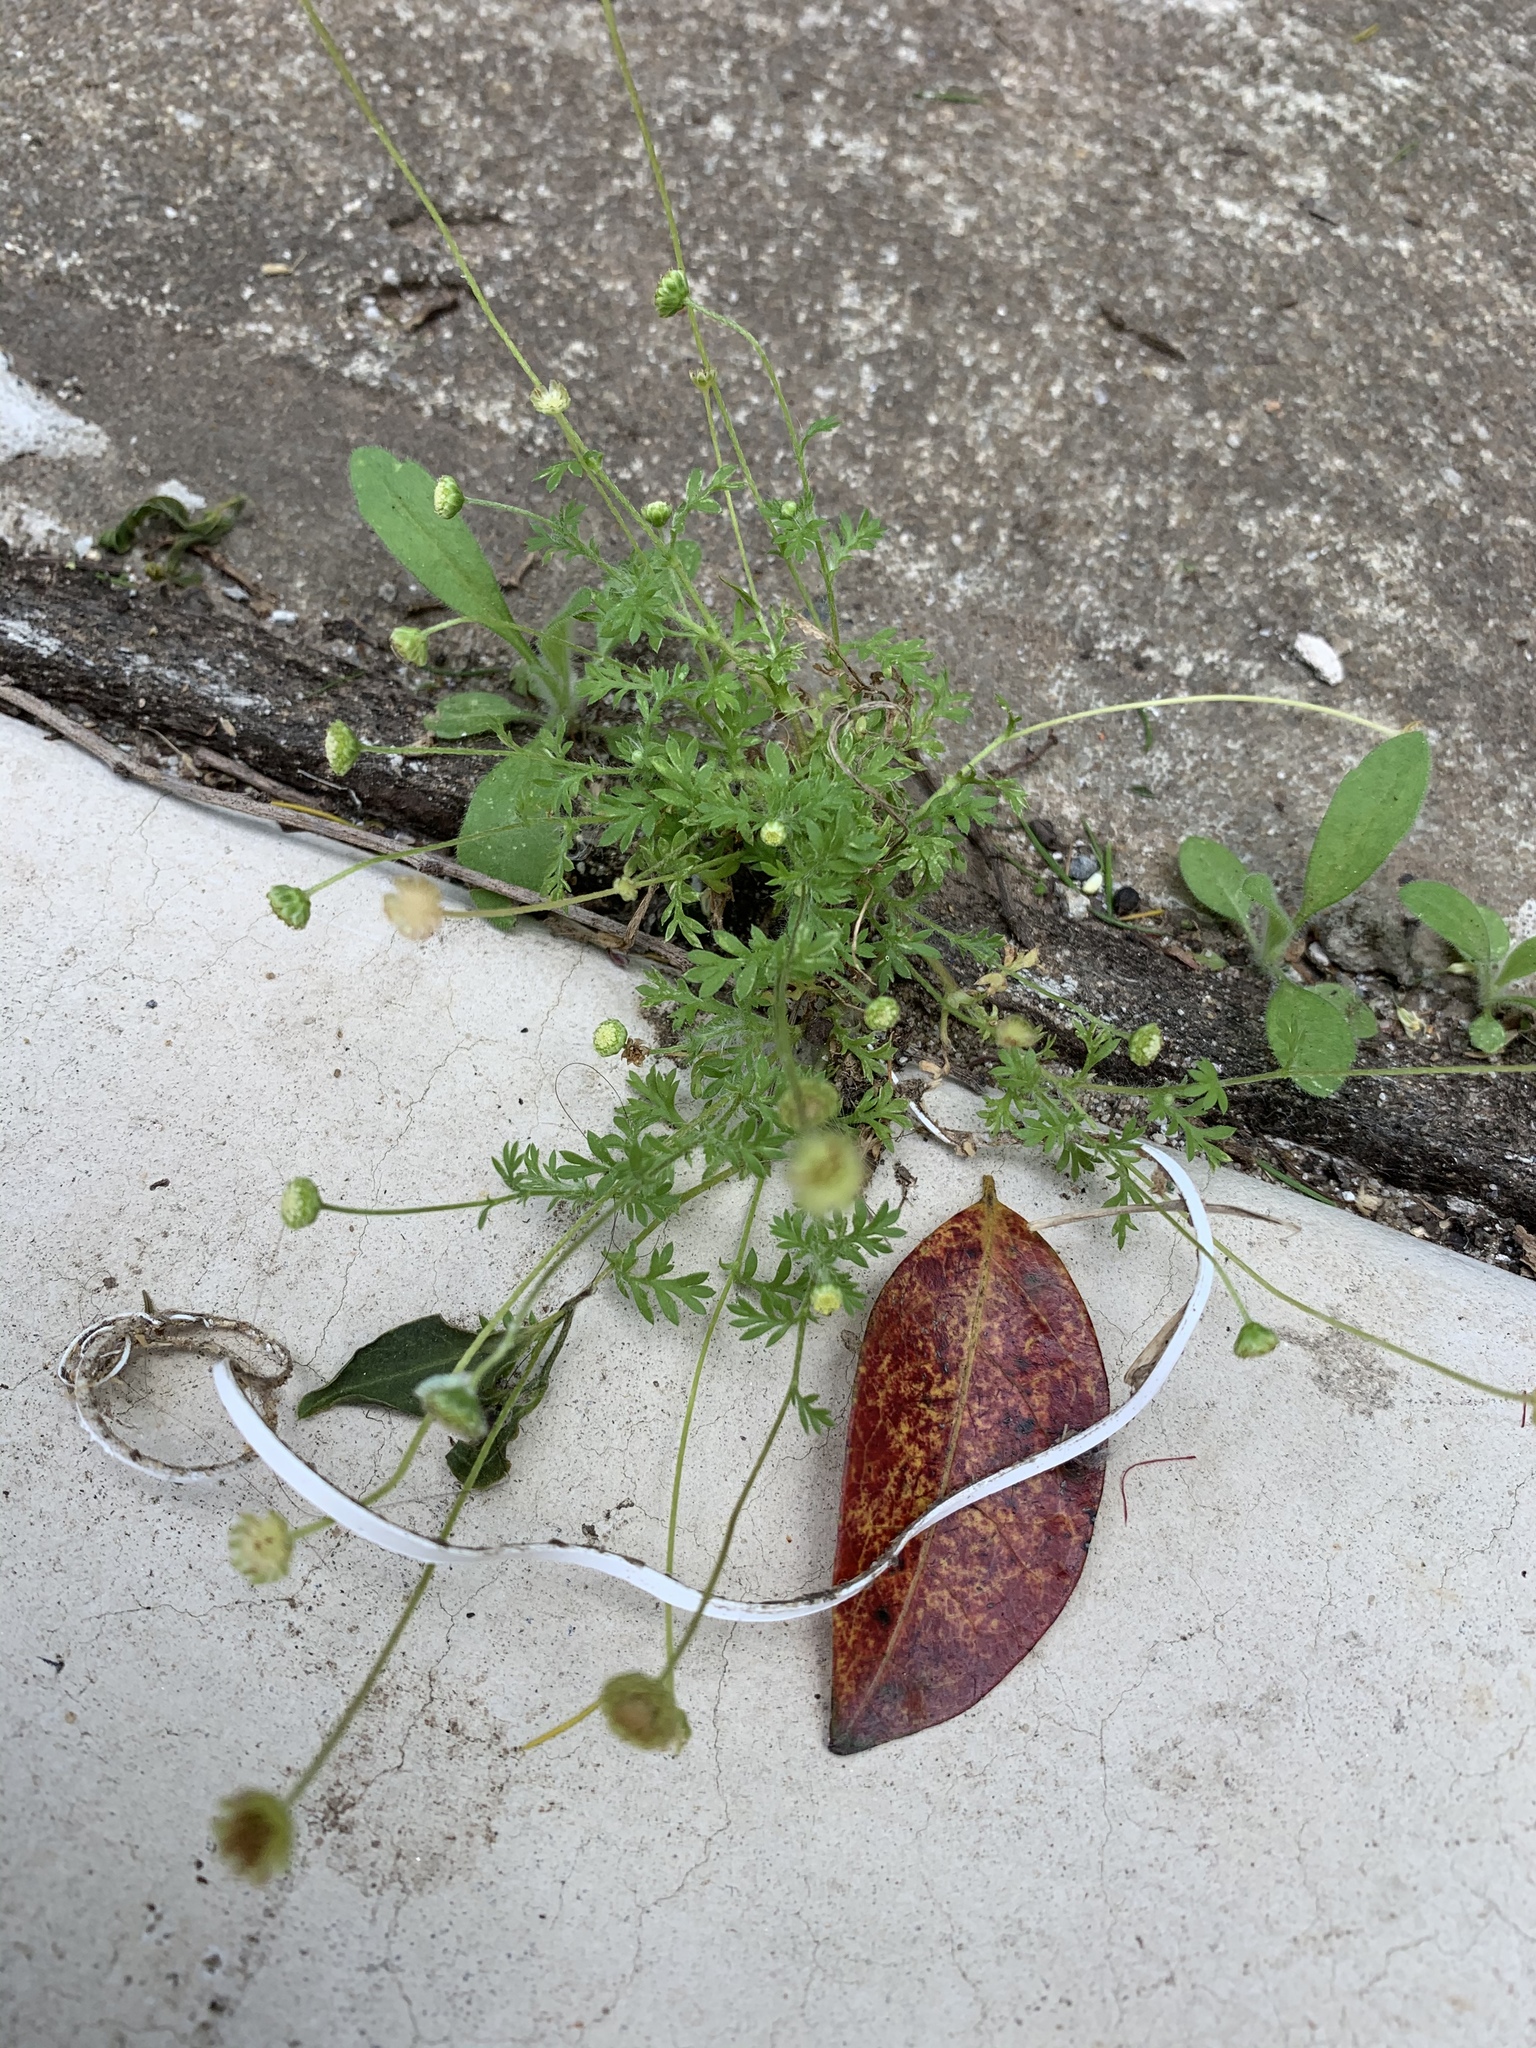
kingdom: Plantae
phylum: Tracheophyta
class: Magnoliopsida
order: Asterales
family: Asteraceae
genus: Cotula
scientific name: Cotula australis
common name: Australian waterbuttons
